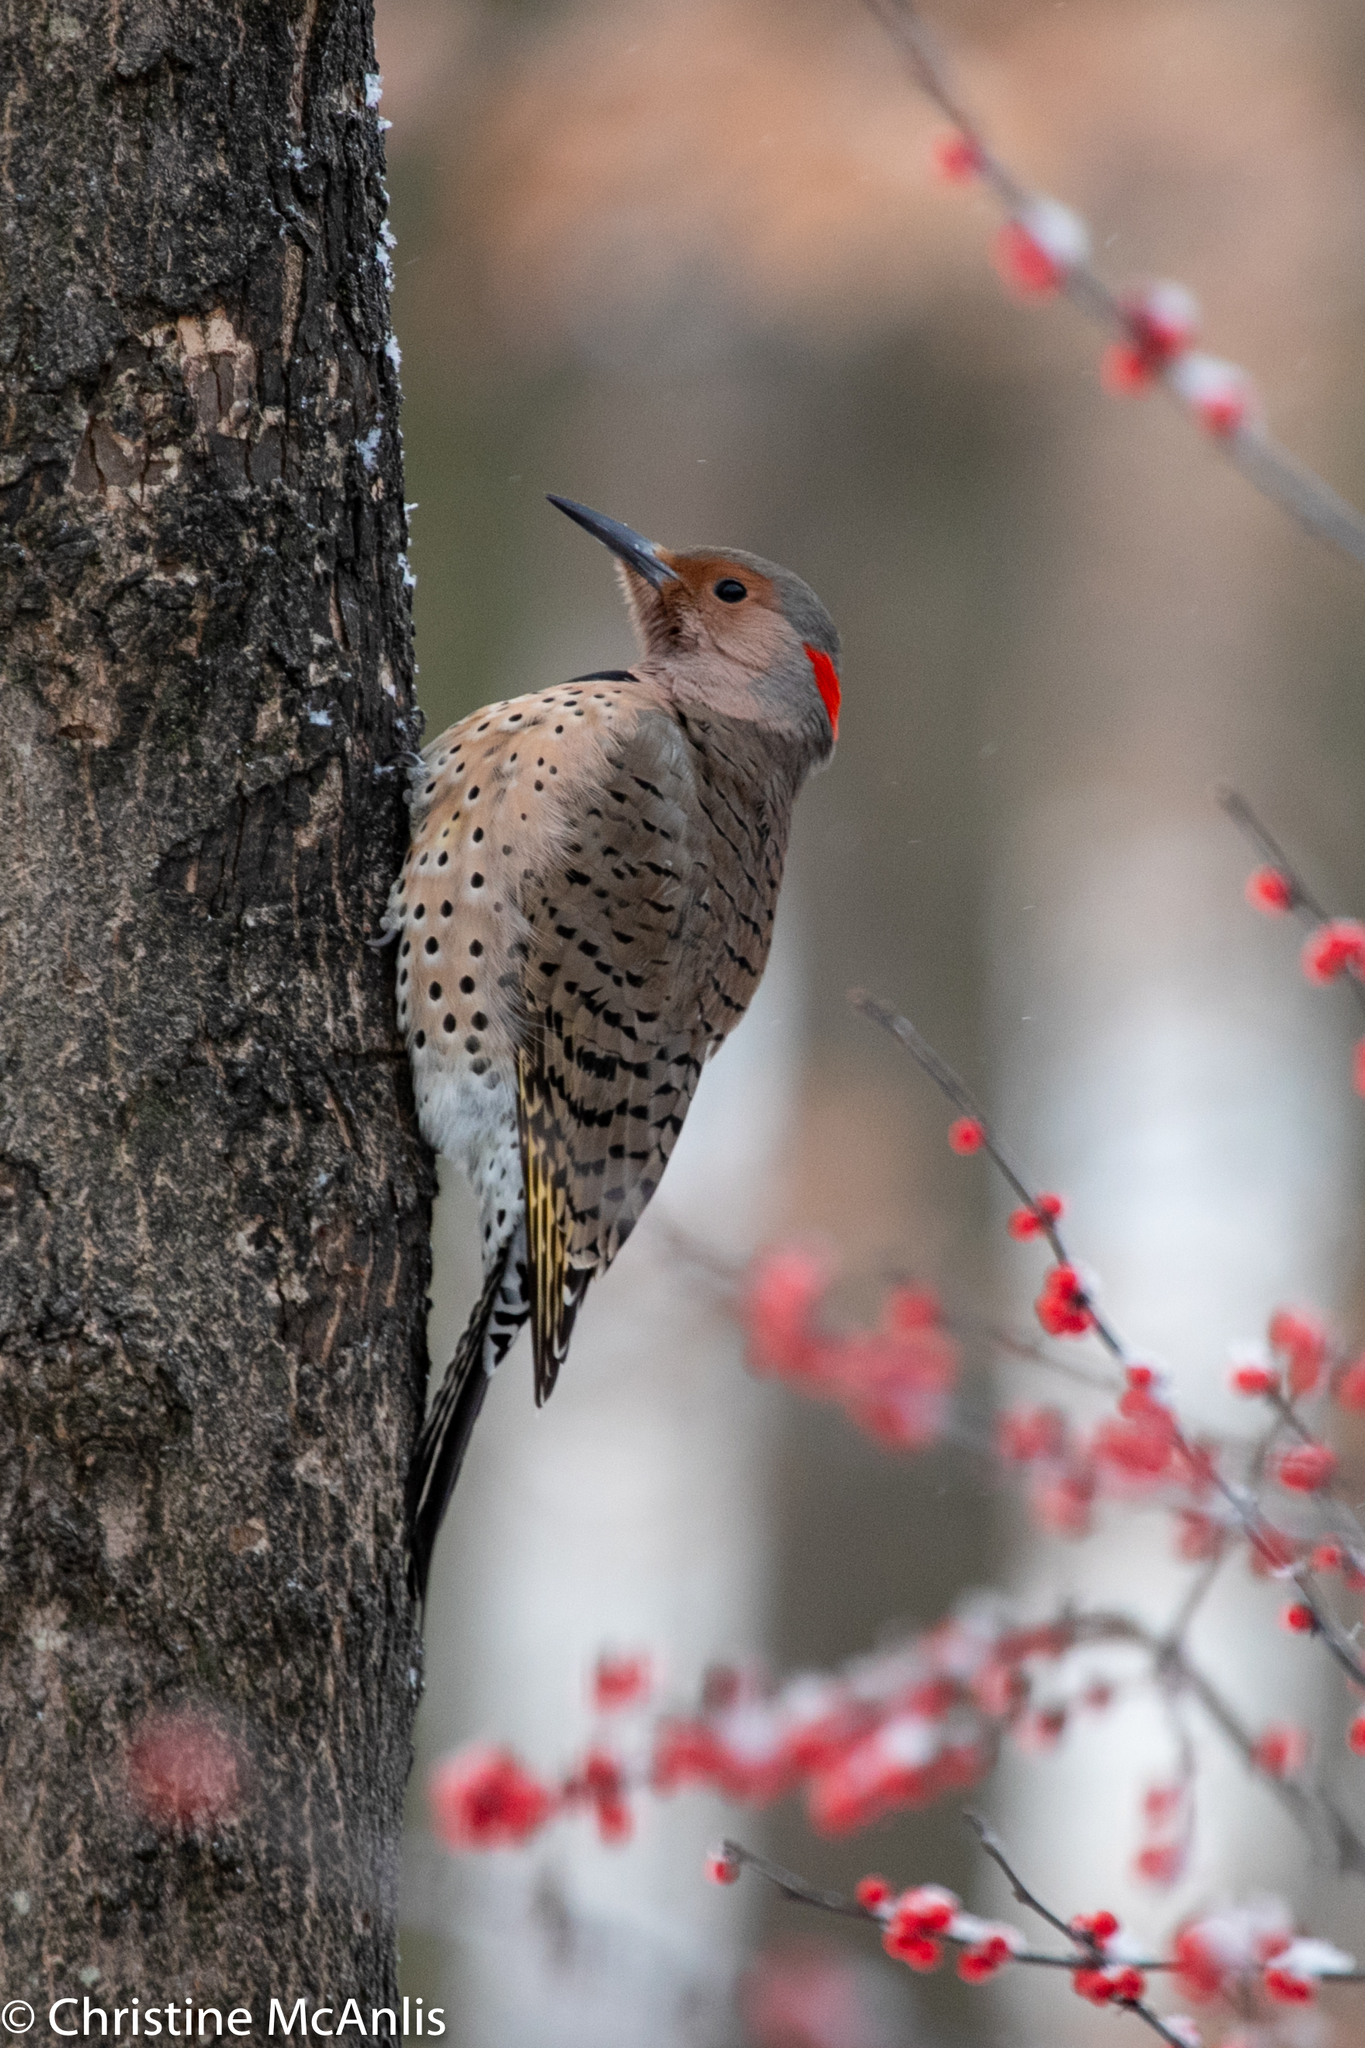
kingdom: Animalia
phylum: Chordata
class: Aves
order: Piciformes
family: Picidae
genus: Colaptes
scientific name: Colaptes auratus
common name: Northern flicker
